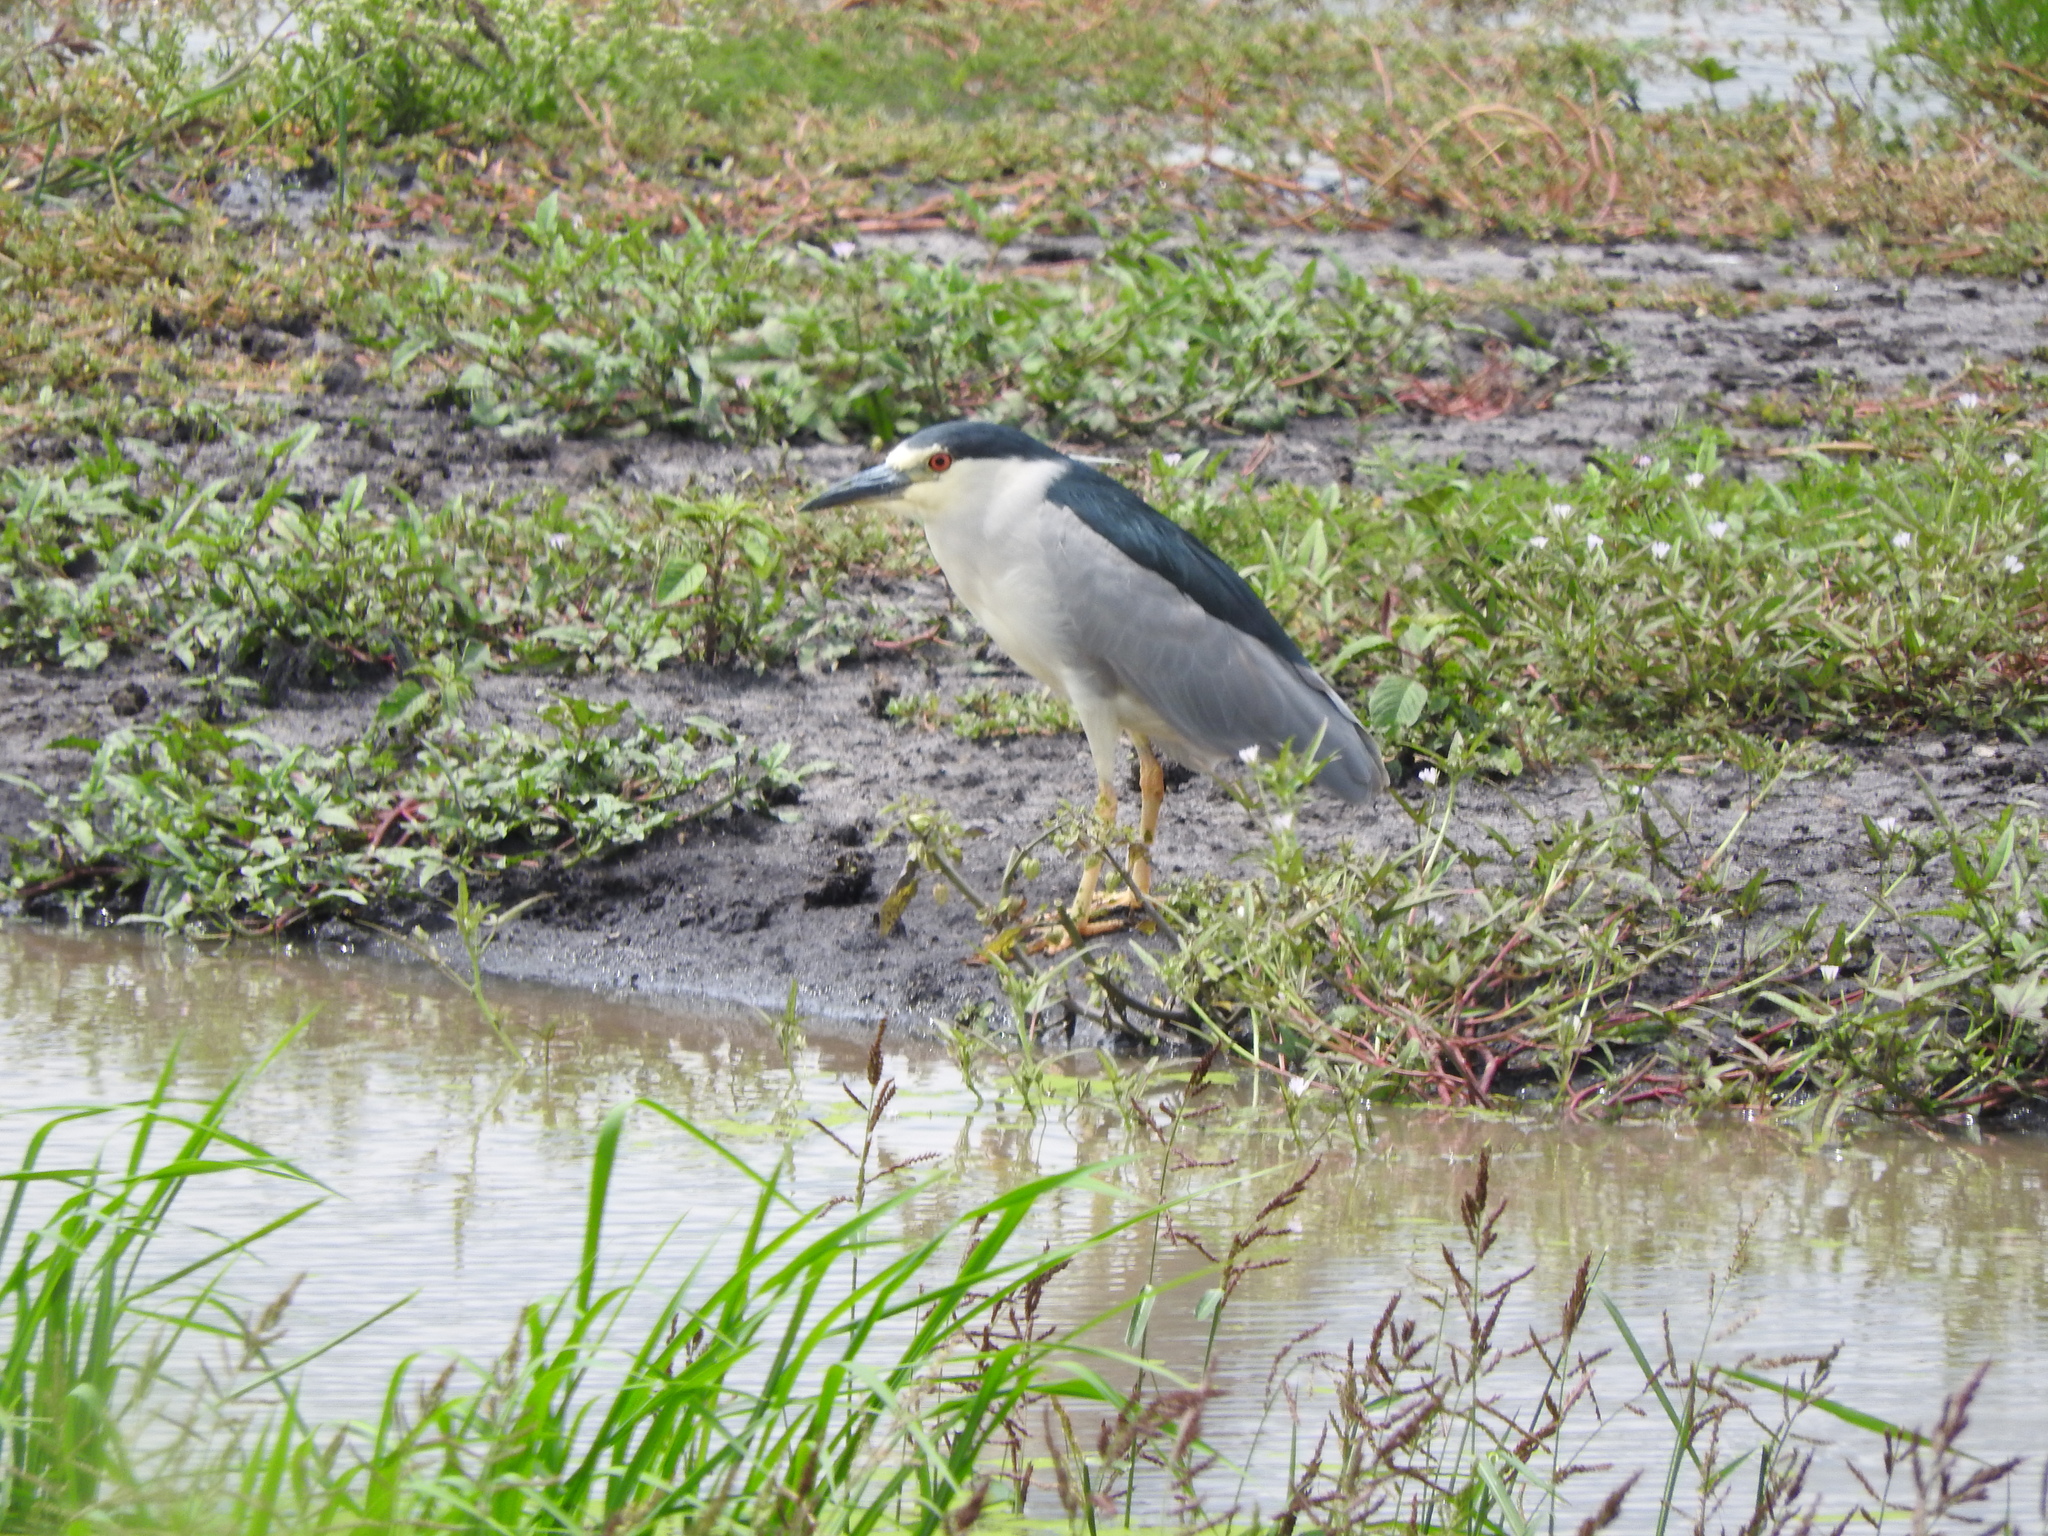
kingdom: Animalia
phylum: Chordata
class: Aves
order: Pelecaniformes
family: Ardeidae
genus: Nycticorax
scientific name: Nycticorax nycticorax
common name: Black-crowned night heron
